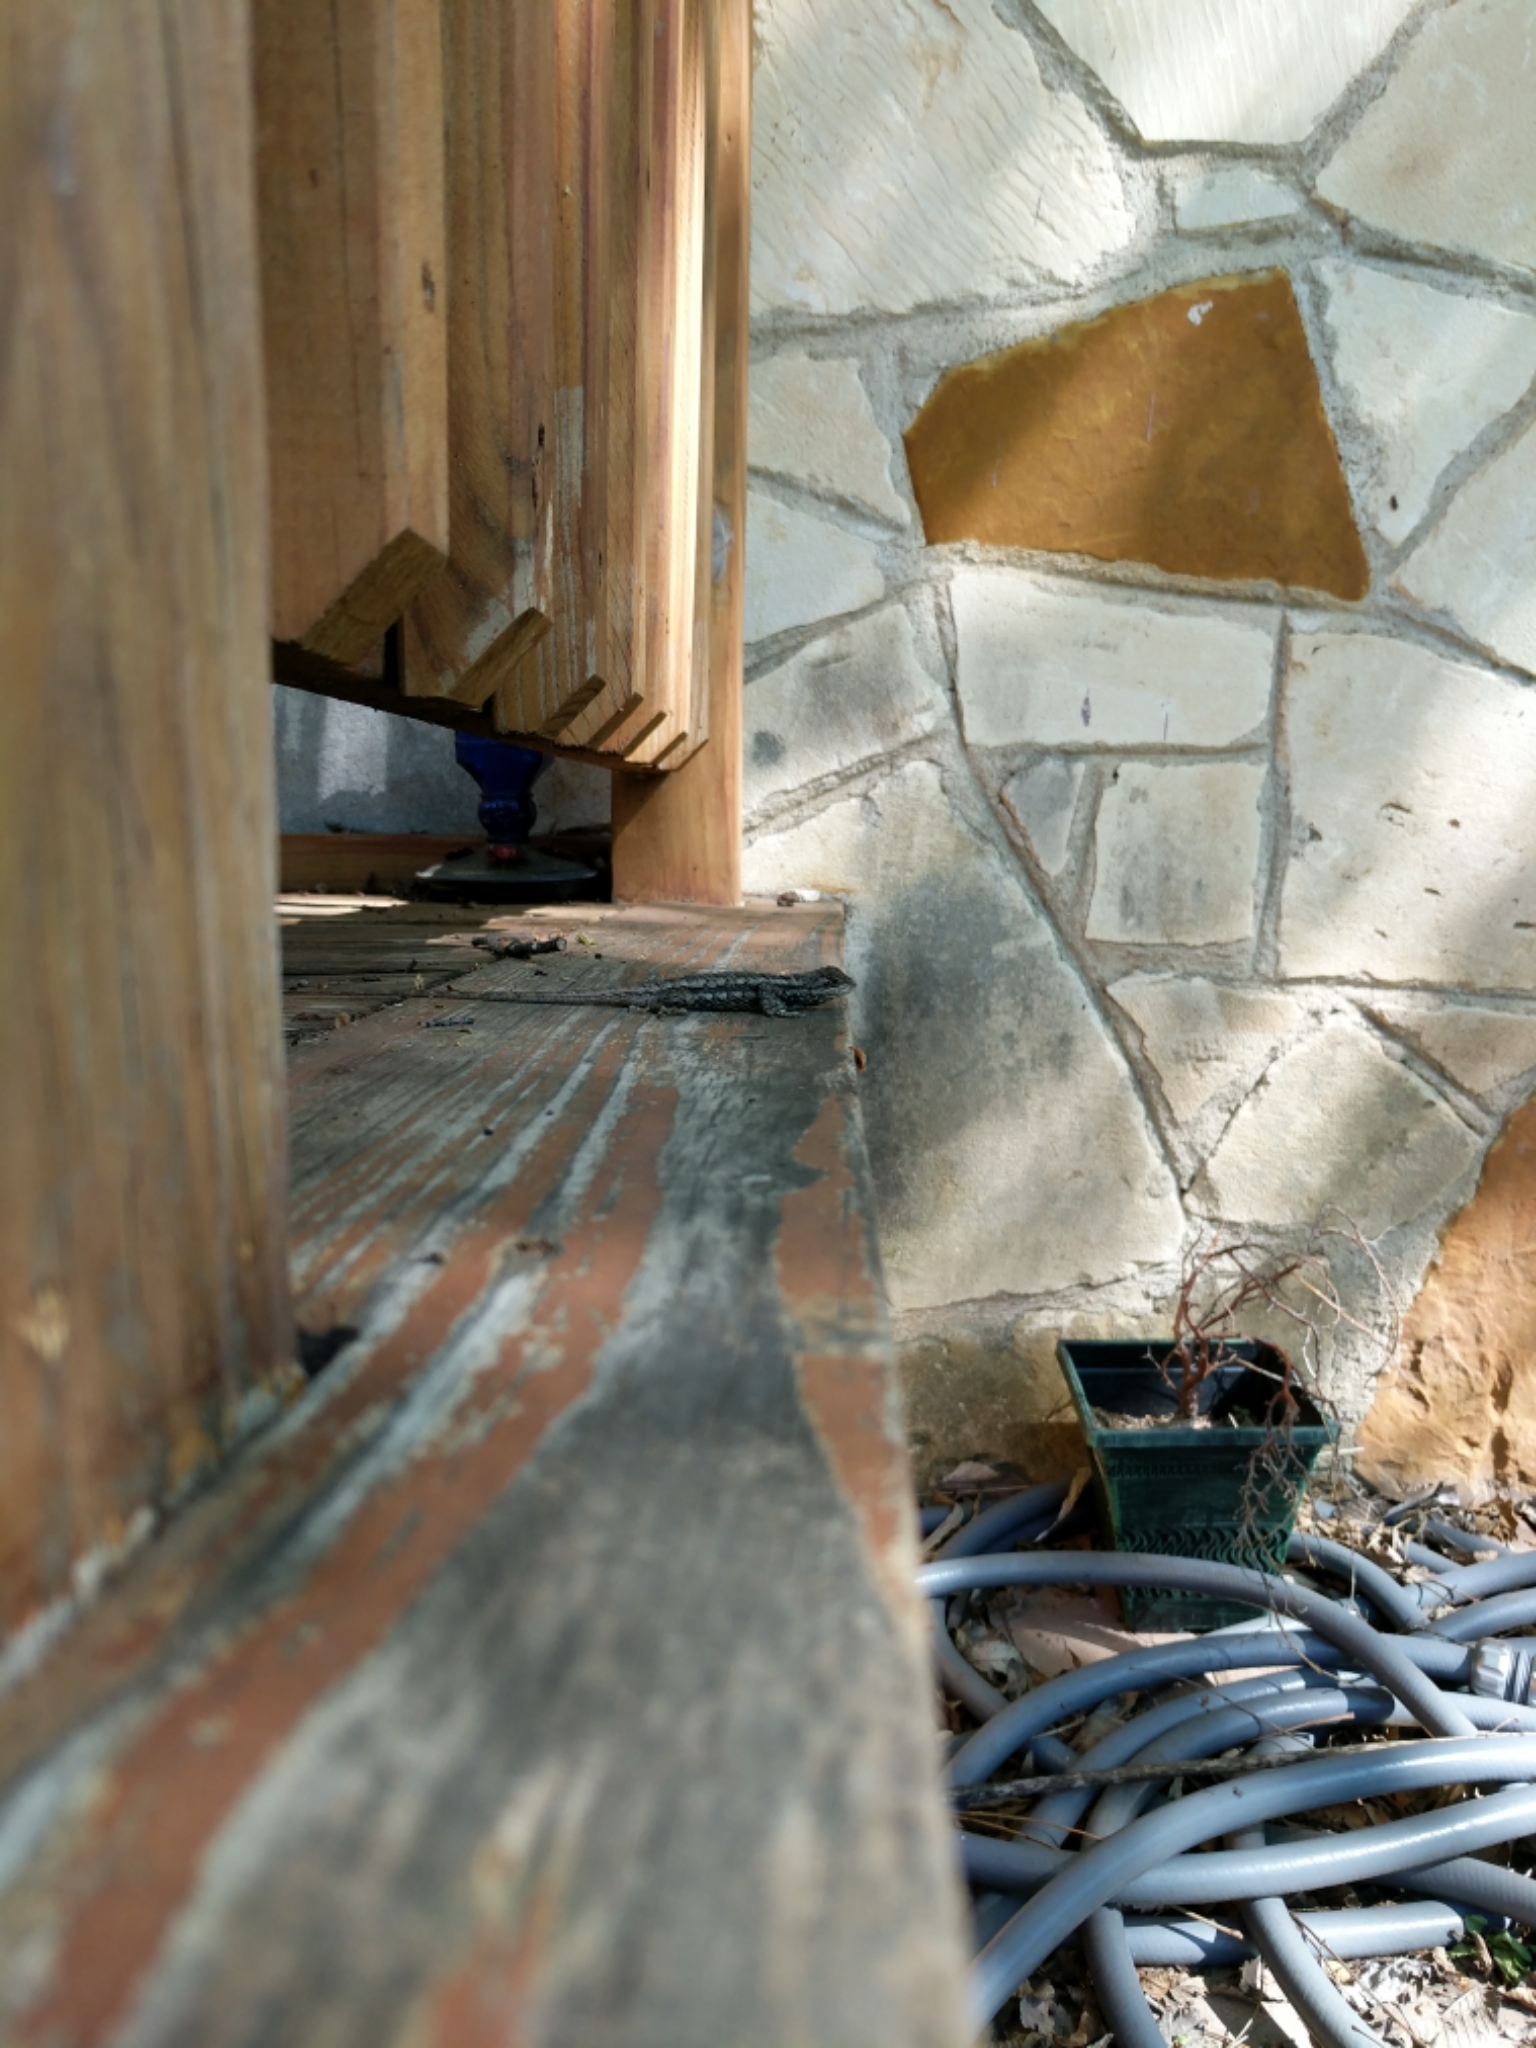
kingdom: Animalia
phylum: Chordata
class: Squamata
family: Phrynosomatidae
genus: Sceloporus
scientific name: Sceloporus olivaceus
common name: Texas spiny lizard
